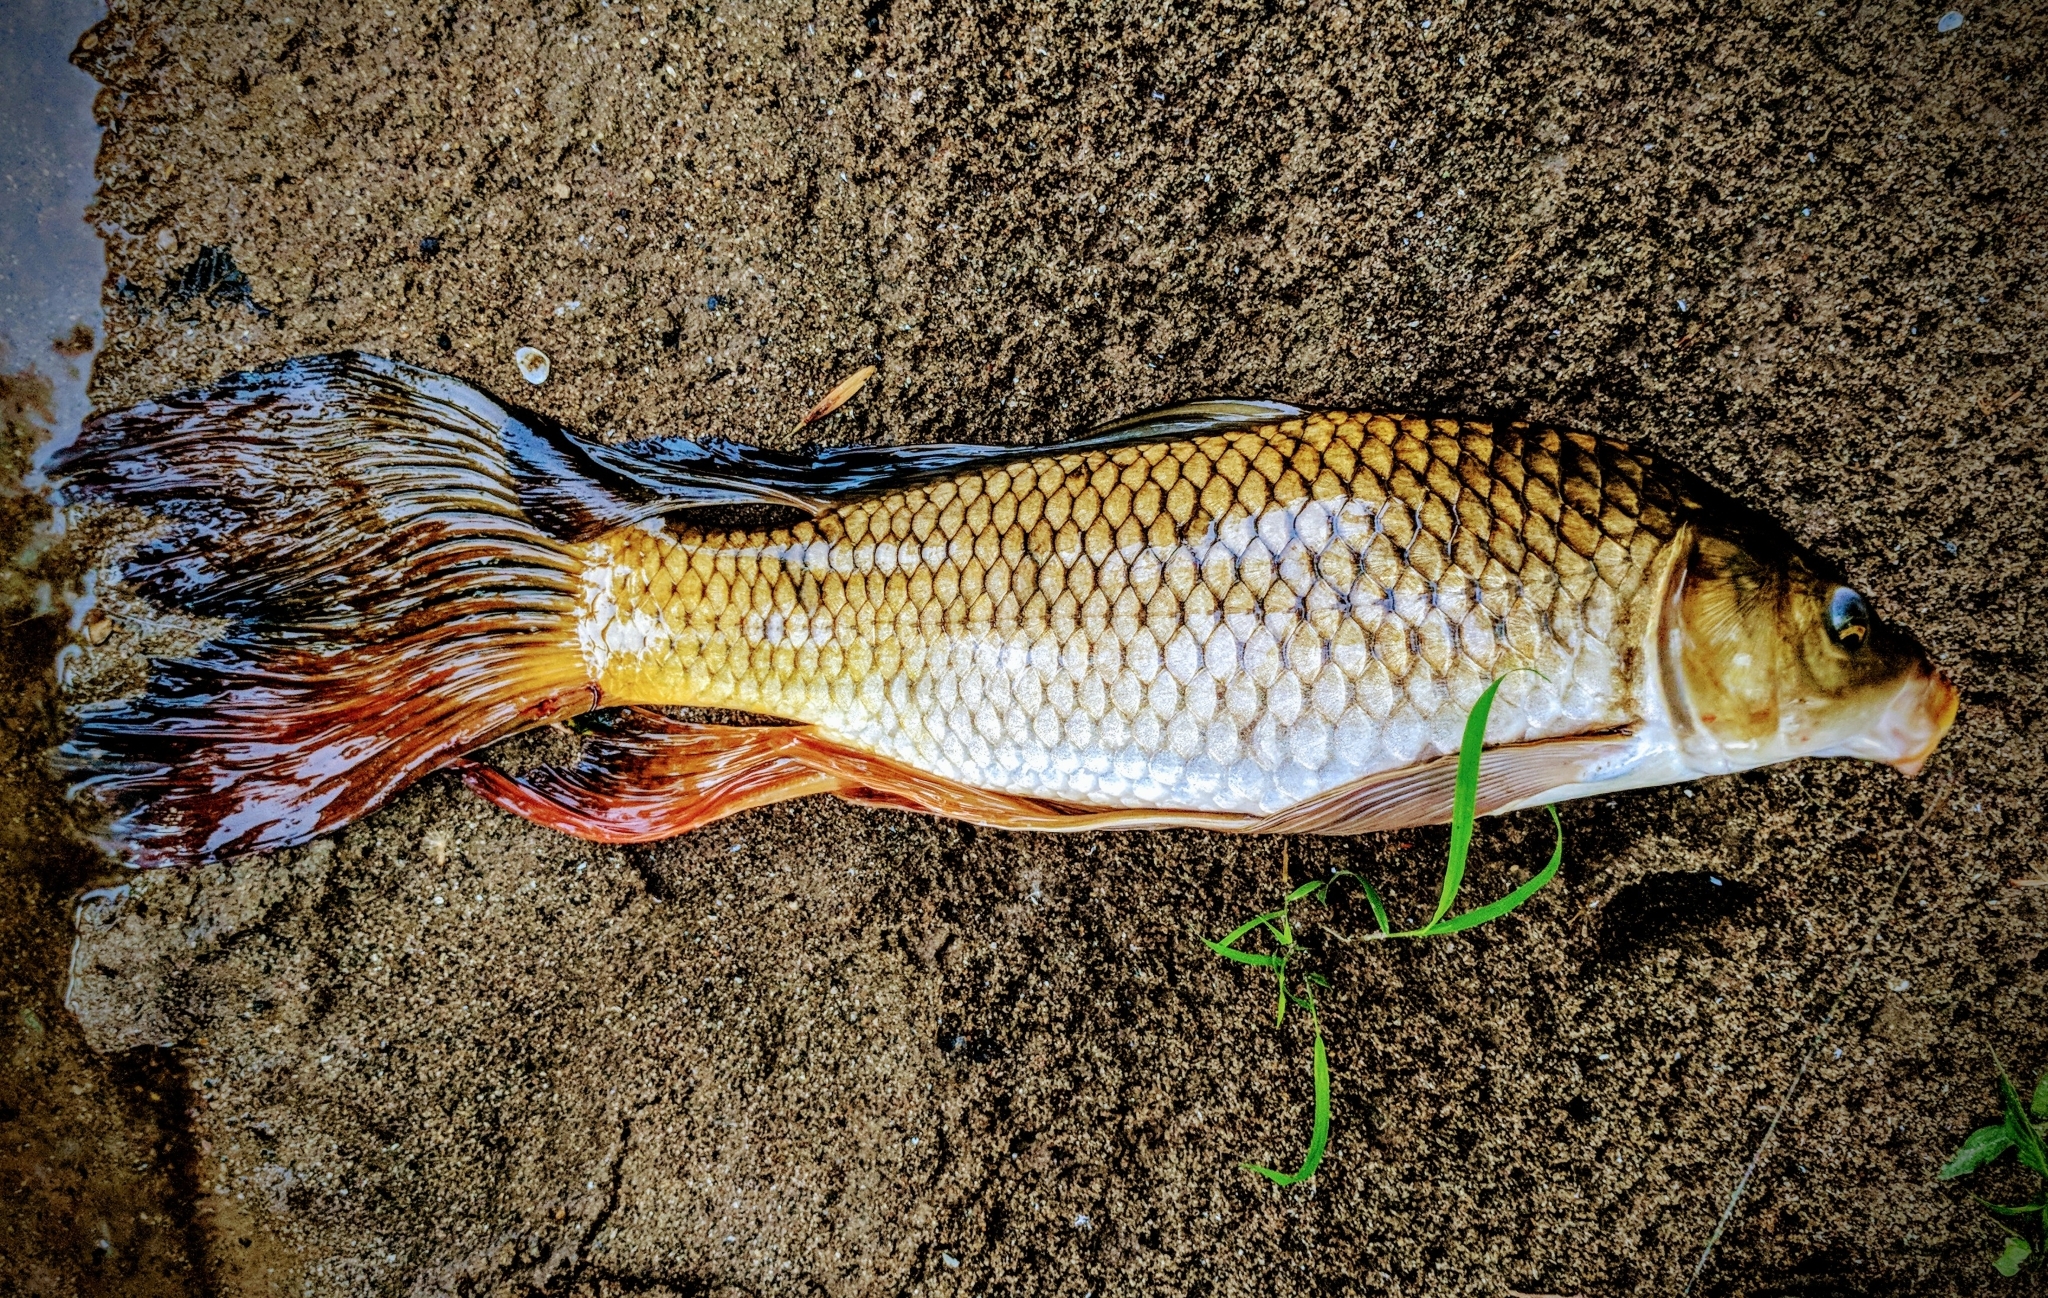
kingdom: Animalia
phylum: Chordata
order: Cypriniformes
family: Cyprinidae
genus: Cyprinus
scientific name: Cyprinus carpio
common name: Common carp
